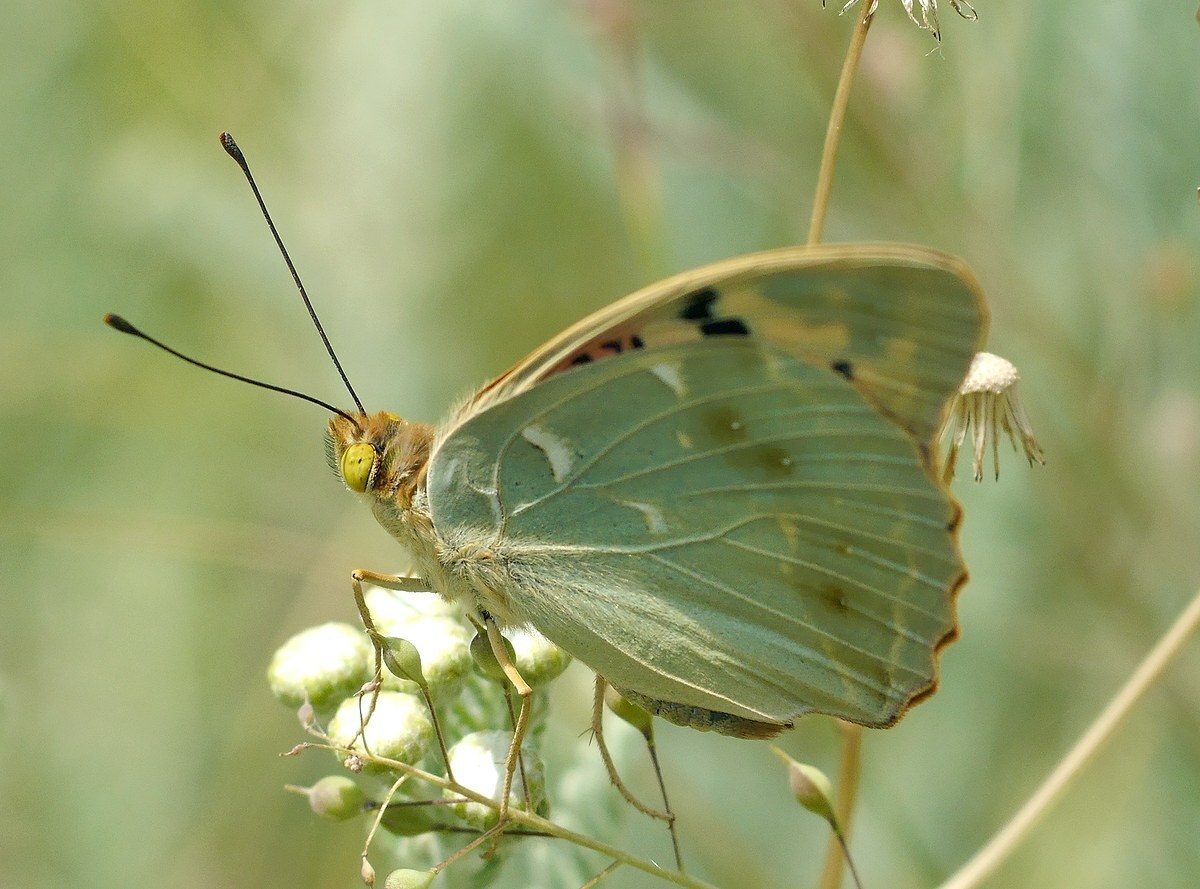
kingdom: Animalia
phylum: Arthropoda
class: Insecta
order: Lepidoptera
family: Nymphalidae
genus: Damora
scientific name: Damora pandora
